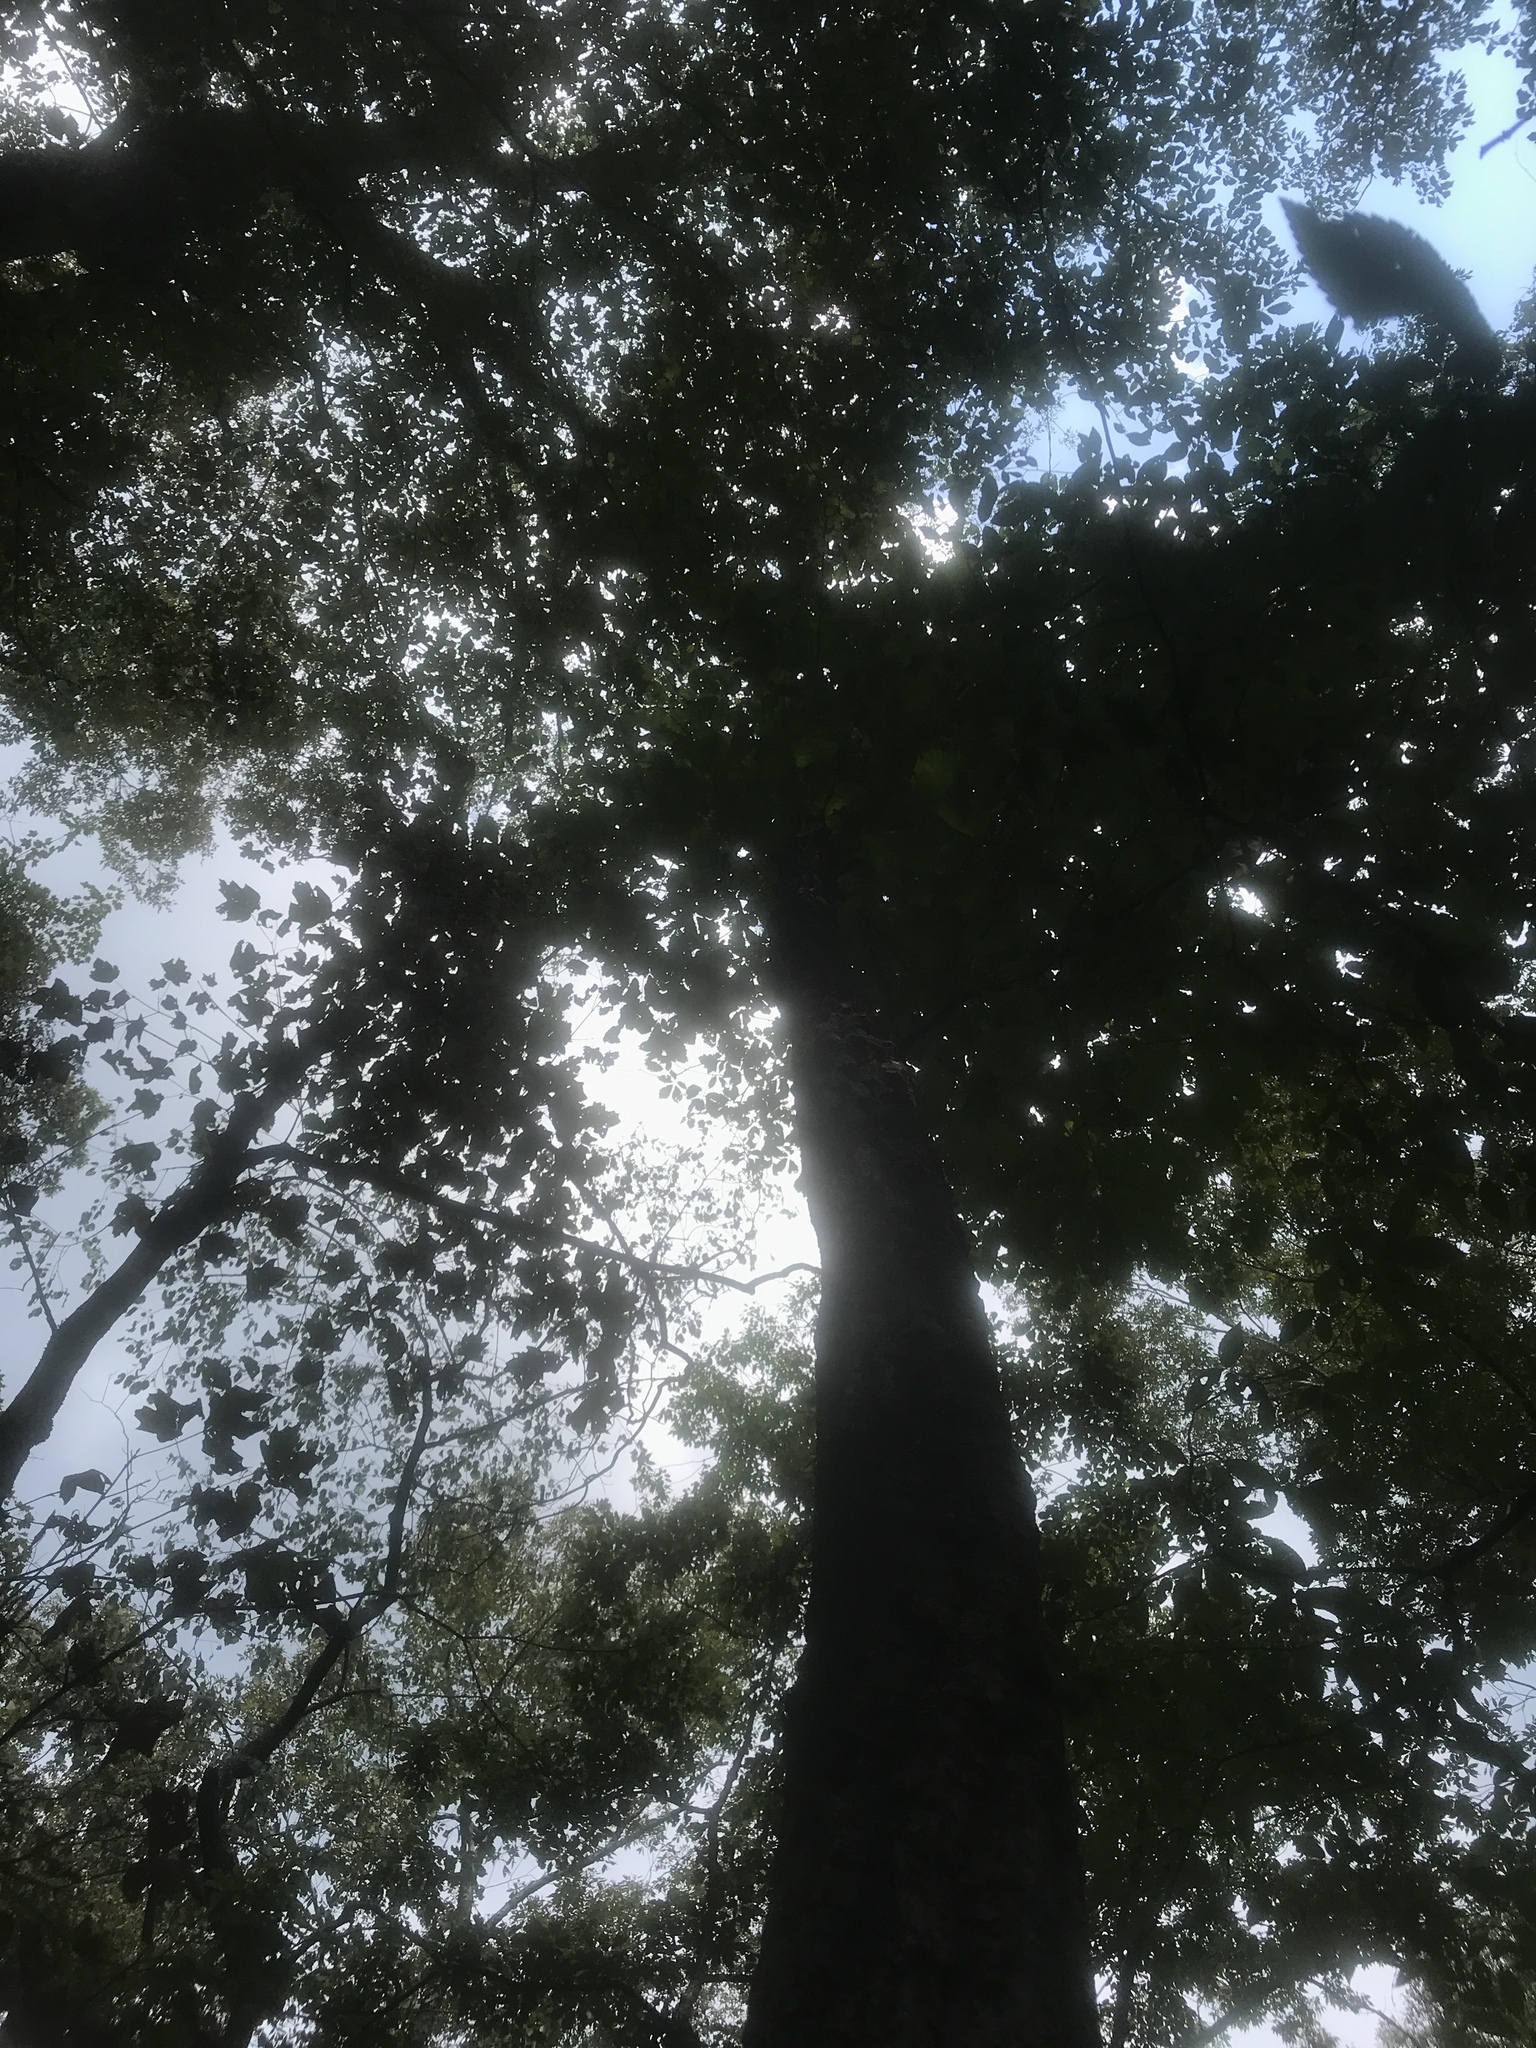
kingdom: Plantae
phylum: Tracheophyta
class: Magnoliopsida
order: Fagales
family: Fagaceae
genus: Quercus
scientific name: Quercus montana
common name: Chestnut oak
